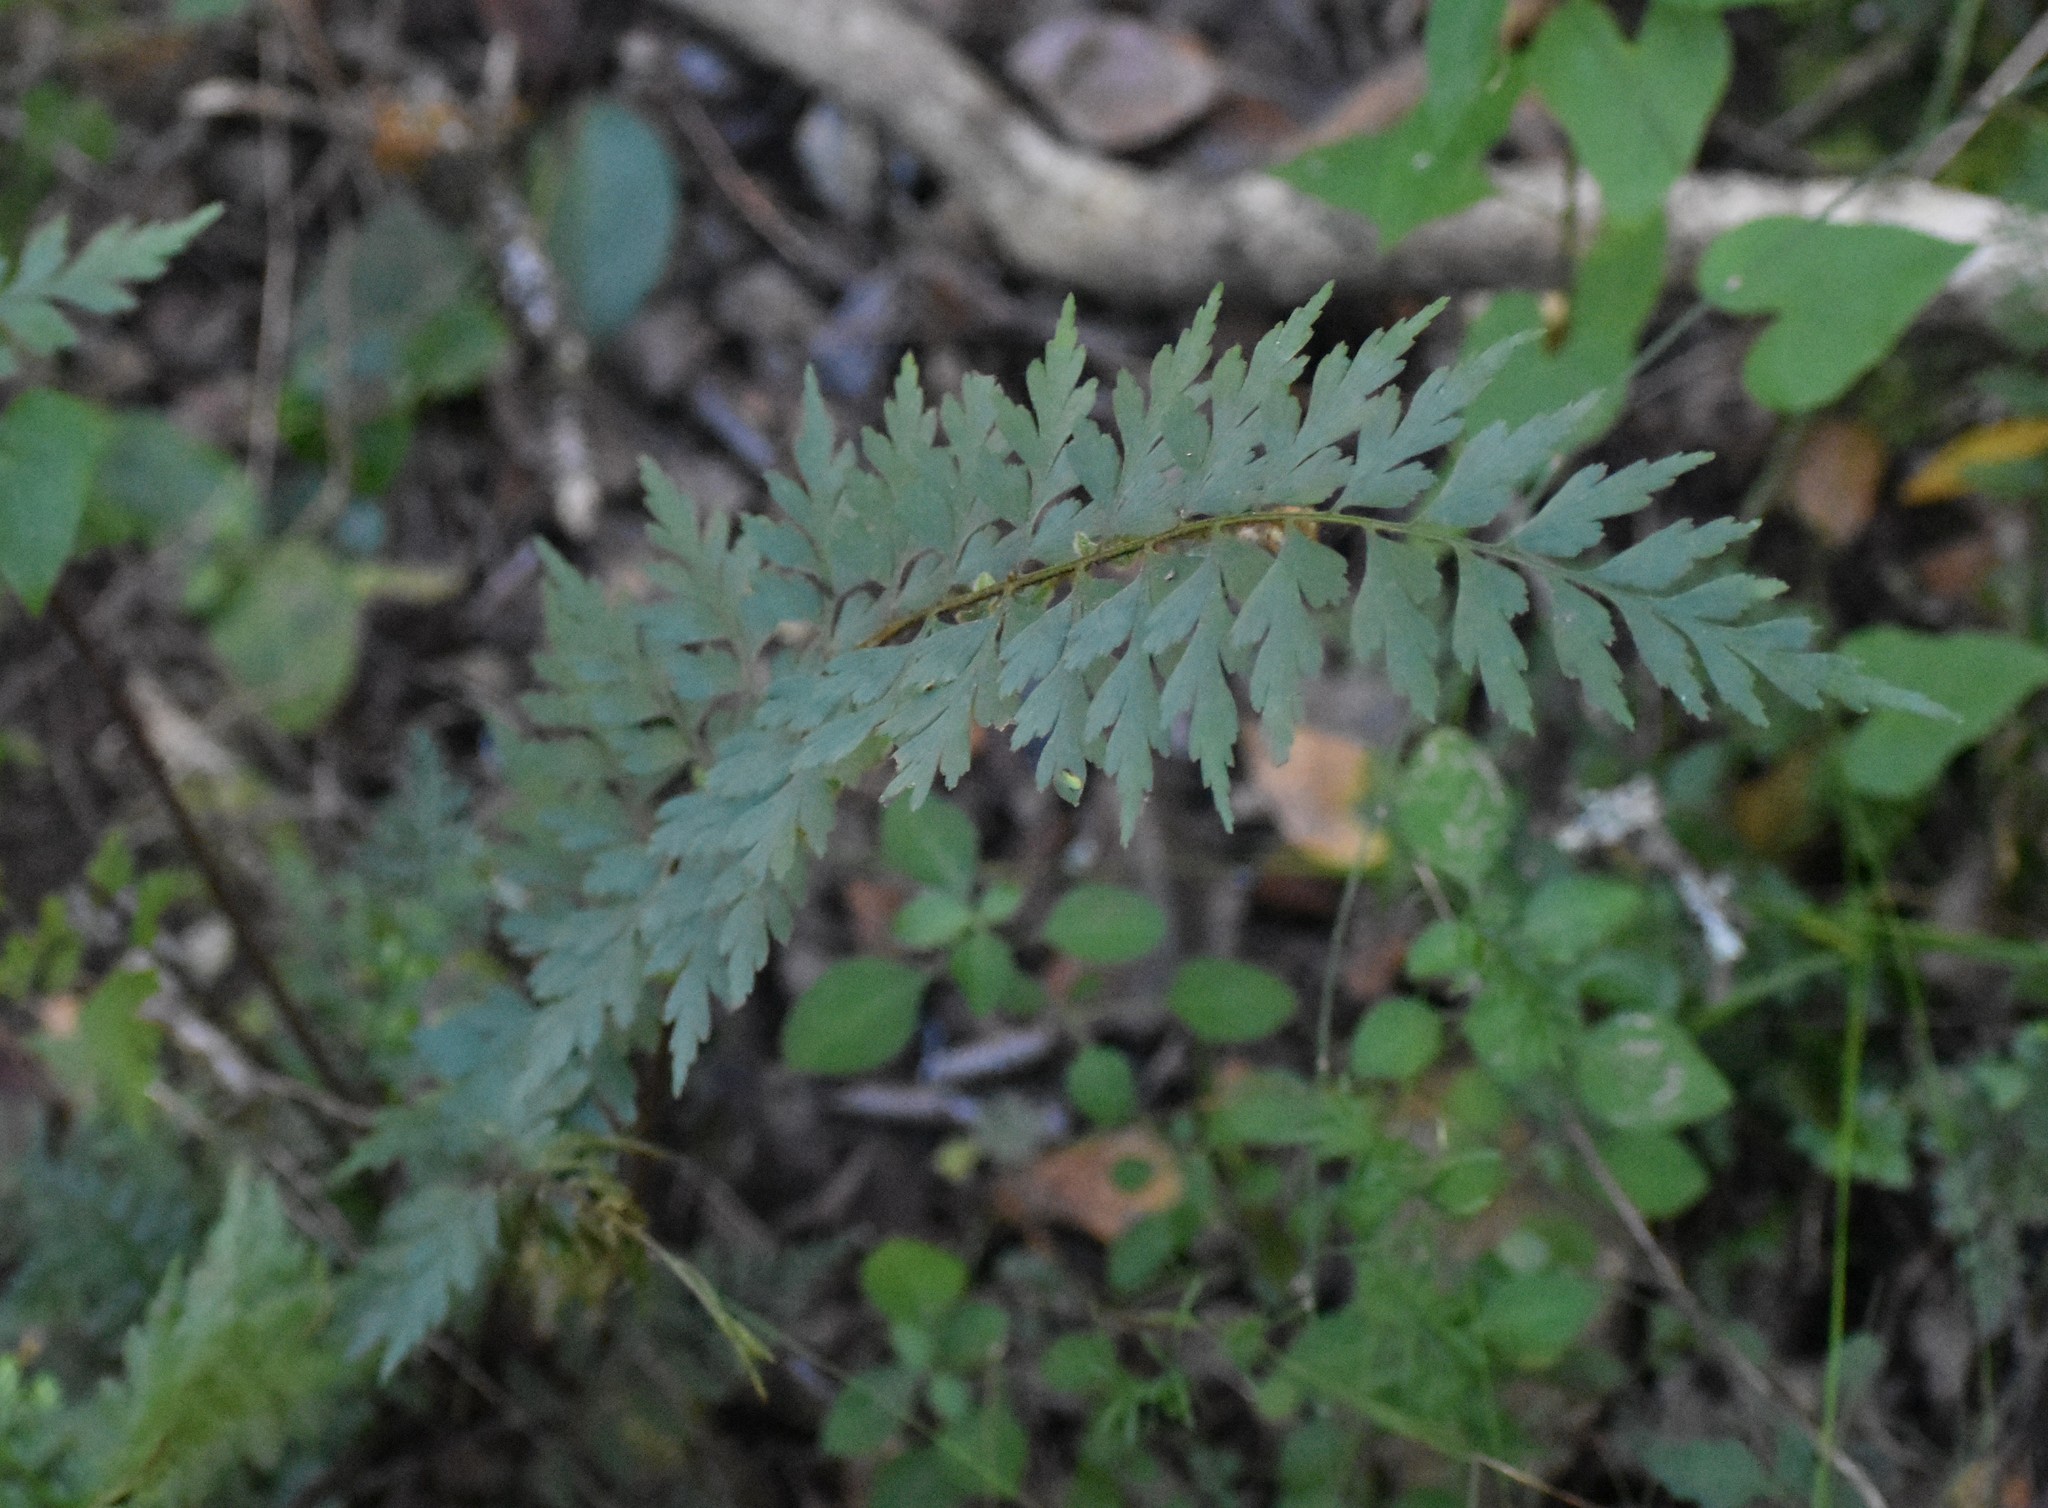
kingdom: Plantae
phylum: Tracheophyta
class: Polypodiopsida
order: Polypodiales
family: Aspleniaceae
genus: Asplenium
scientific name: Asplenium aethiopicum
